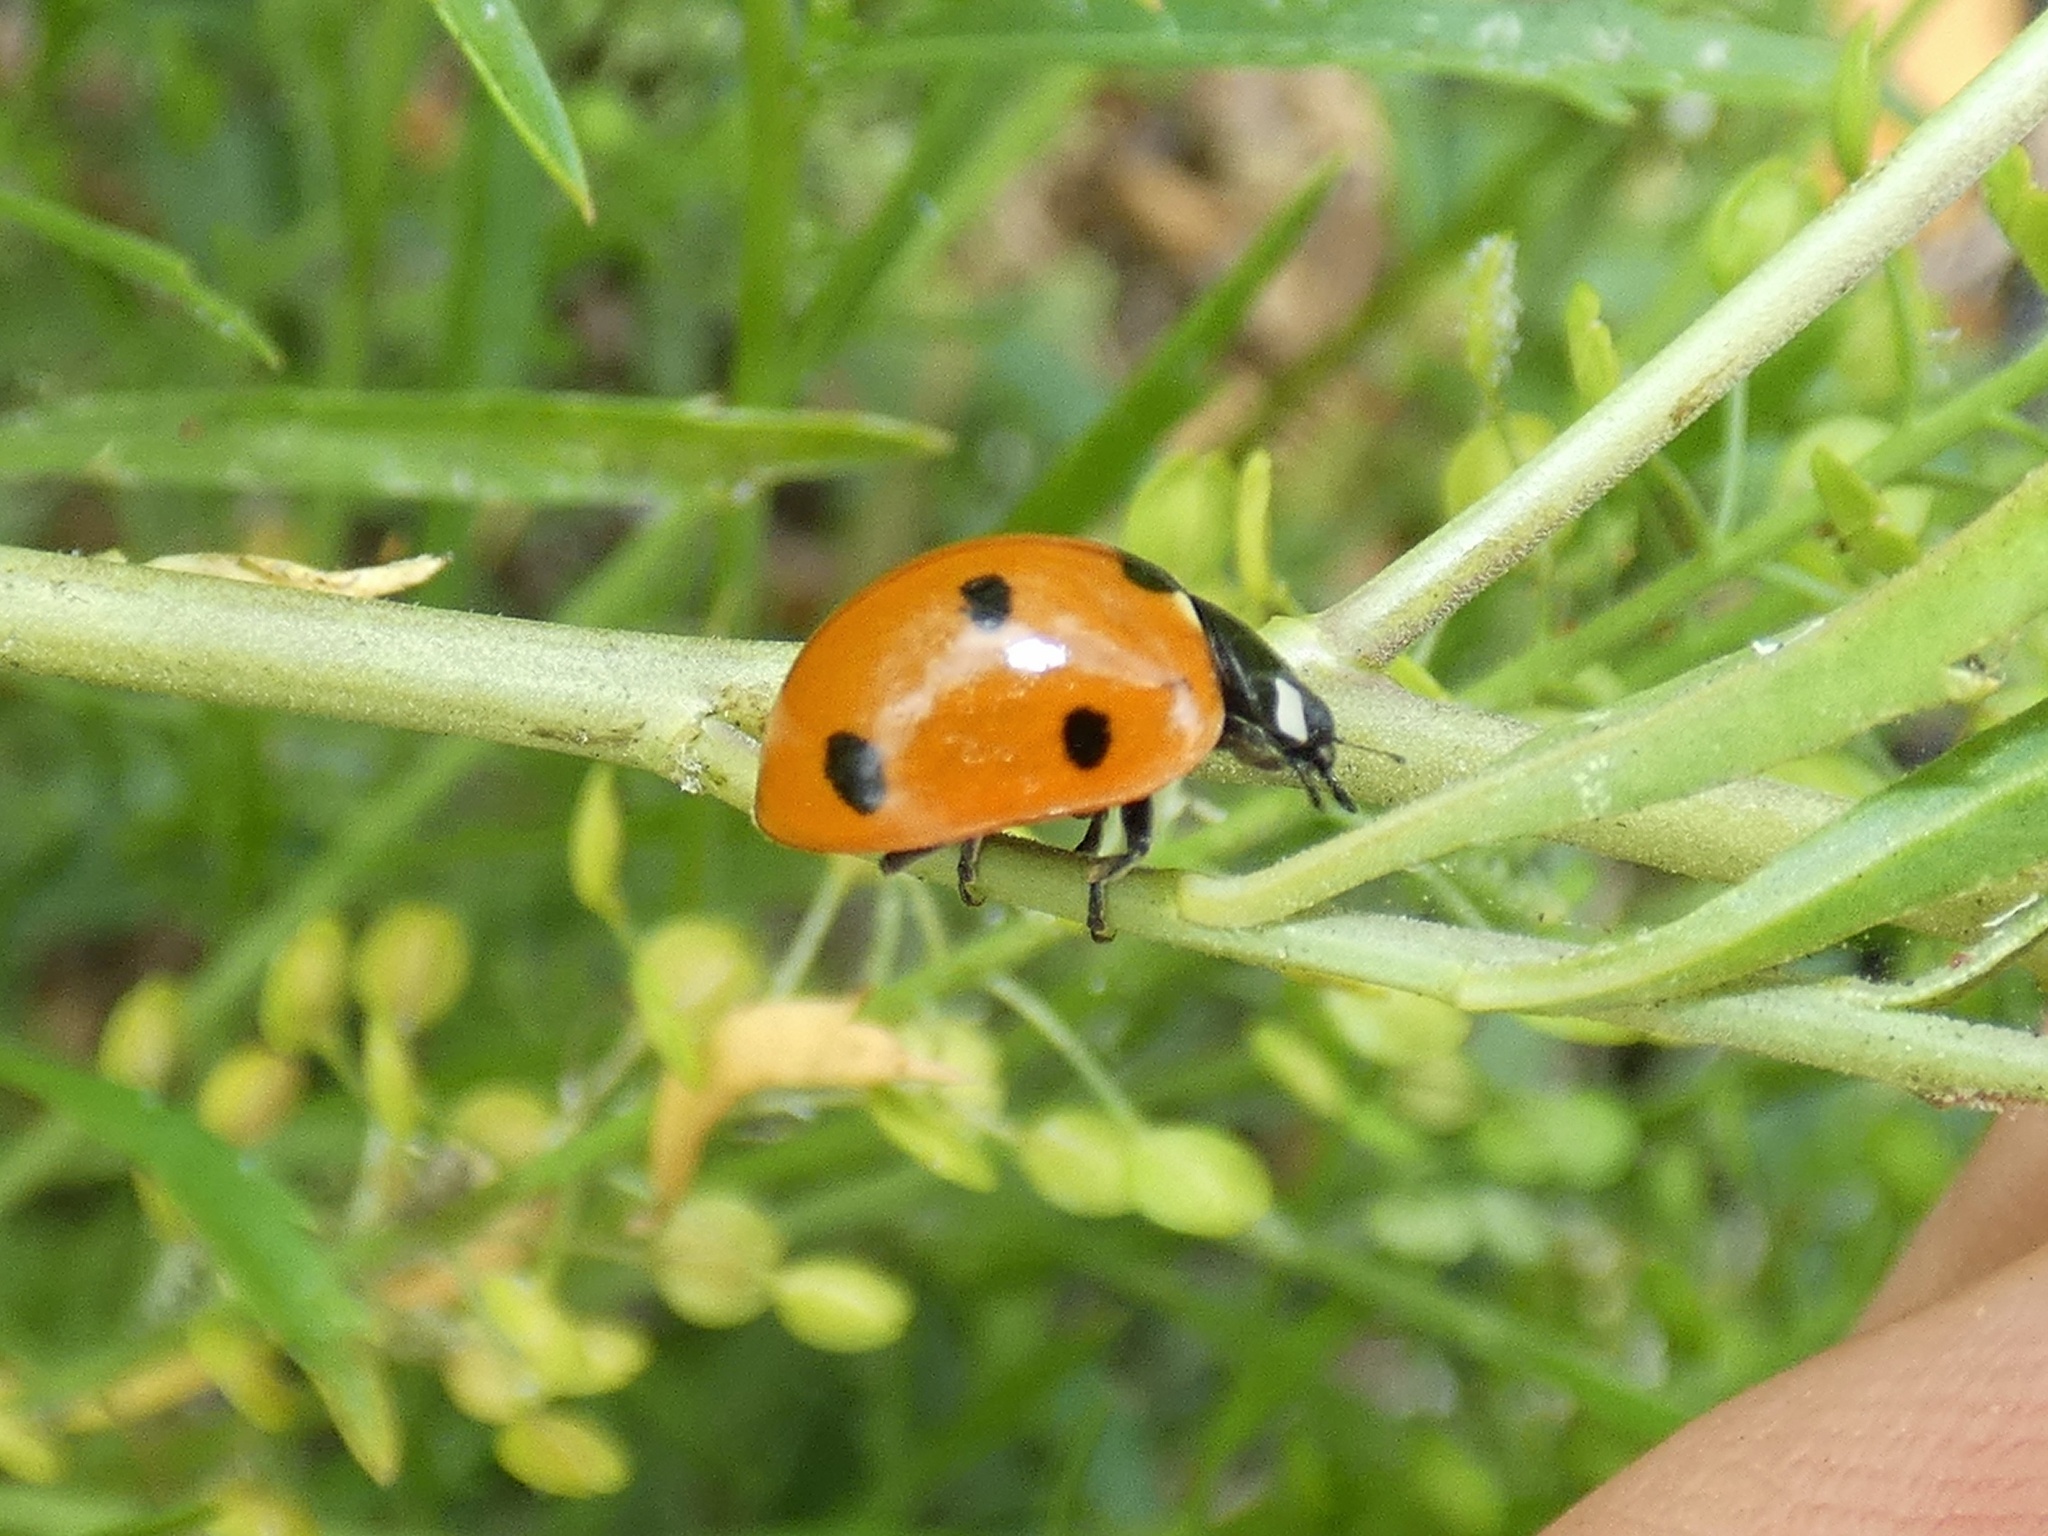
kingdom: Animalia
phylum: Arthropoda
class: Insecta
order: Coleoptera
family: Coccinellidae
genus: Coccinella
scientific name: Coccinella septempunctata
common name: Sevenspotted lady beetle
